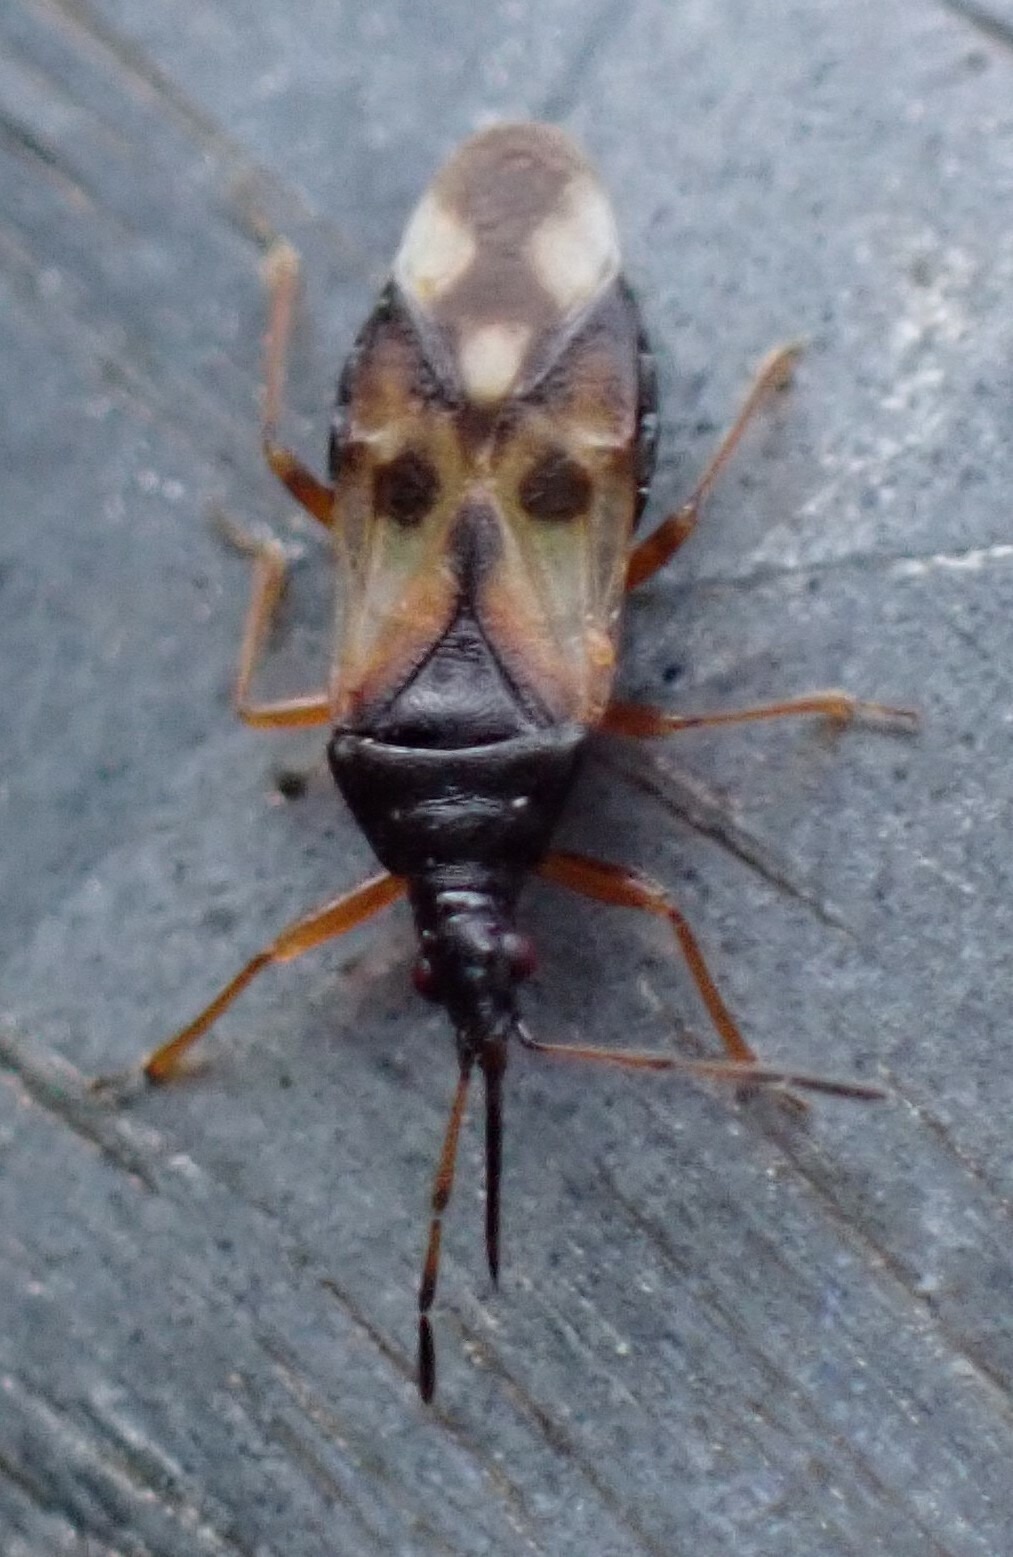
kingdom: Animalia
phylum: Arthropoda
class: Insecta
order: Hemiptera
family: Anthocoridae
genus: Anthocoris
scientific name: Anthocoris nemorum
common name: Minute pirate bug
